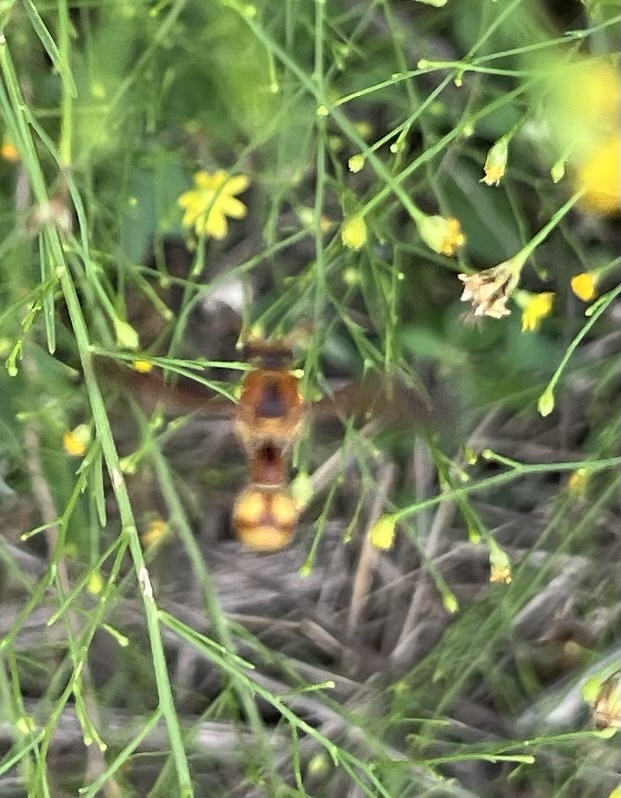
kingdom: Animalia
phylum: Arthropoda
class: Insecta
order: Hymenoptera
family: Vespidae
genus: Eumenes
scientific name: Eumenes bollii
